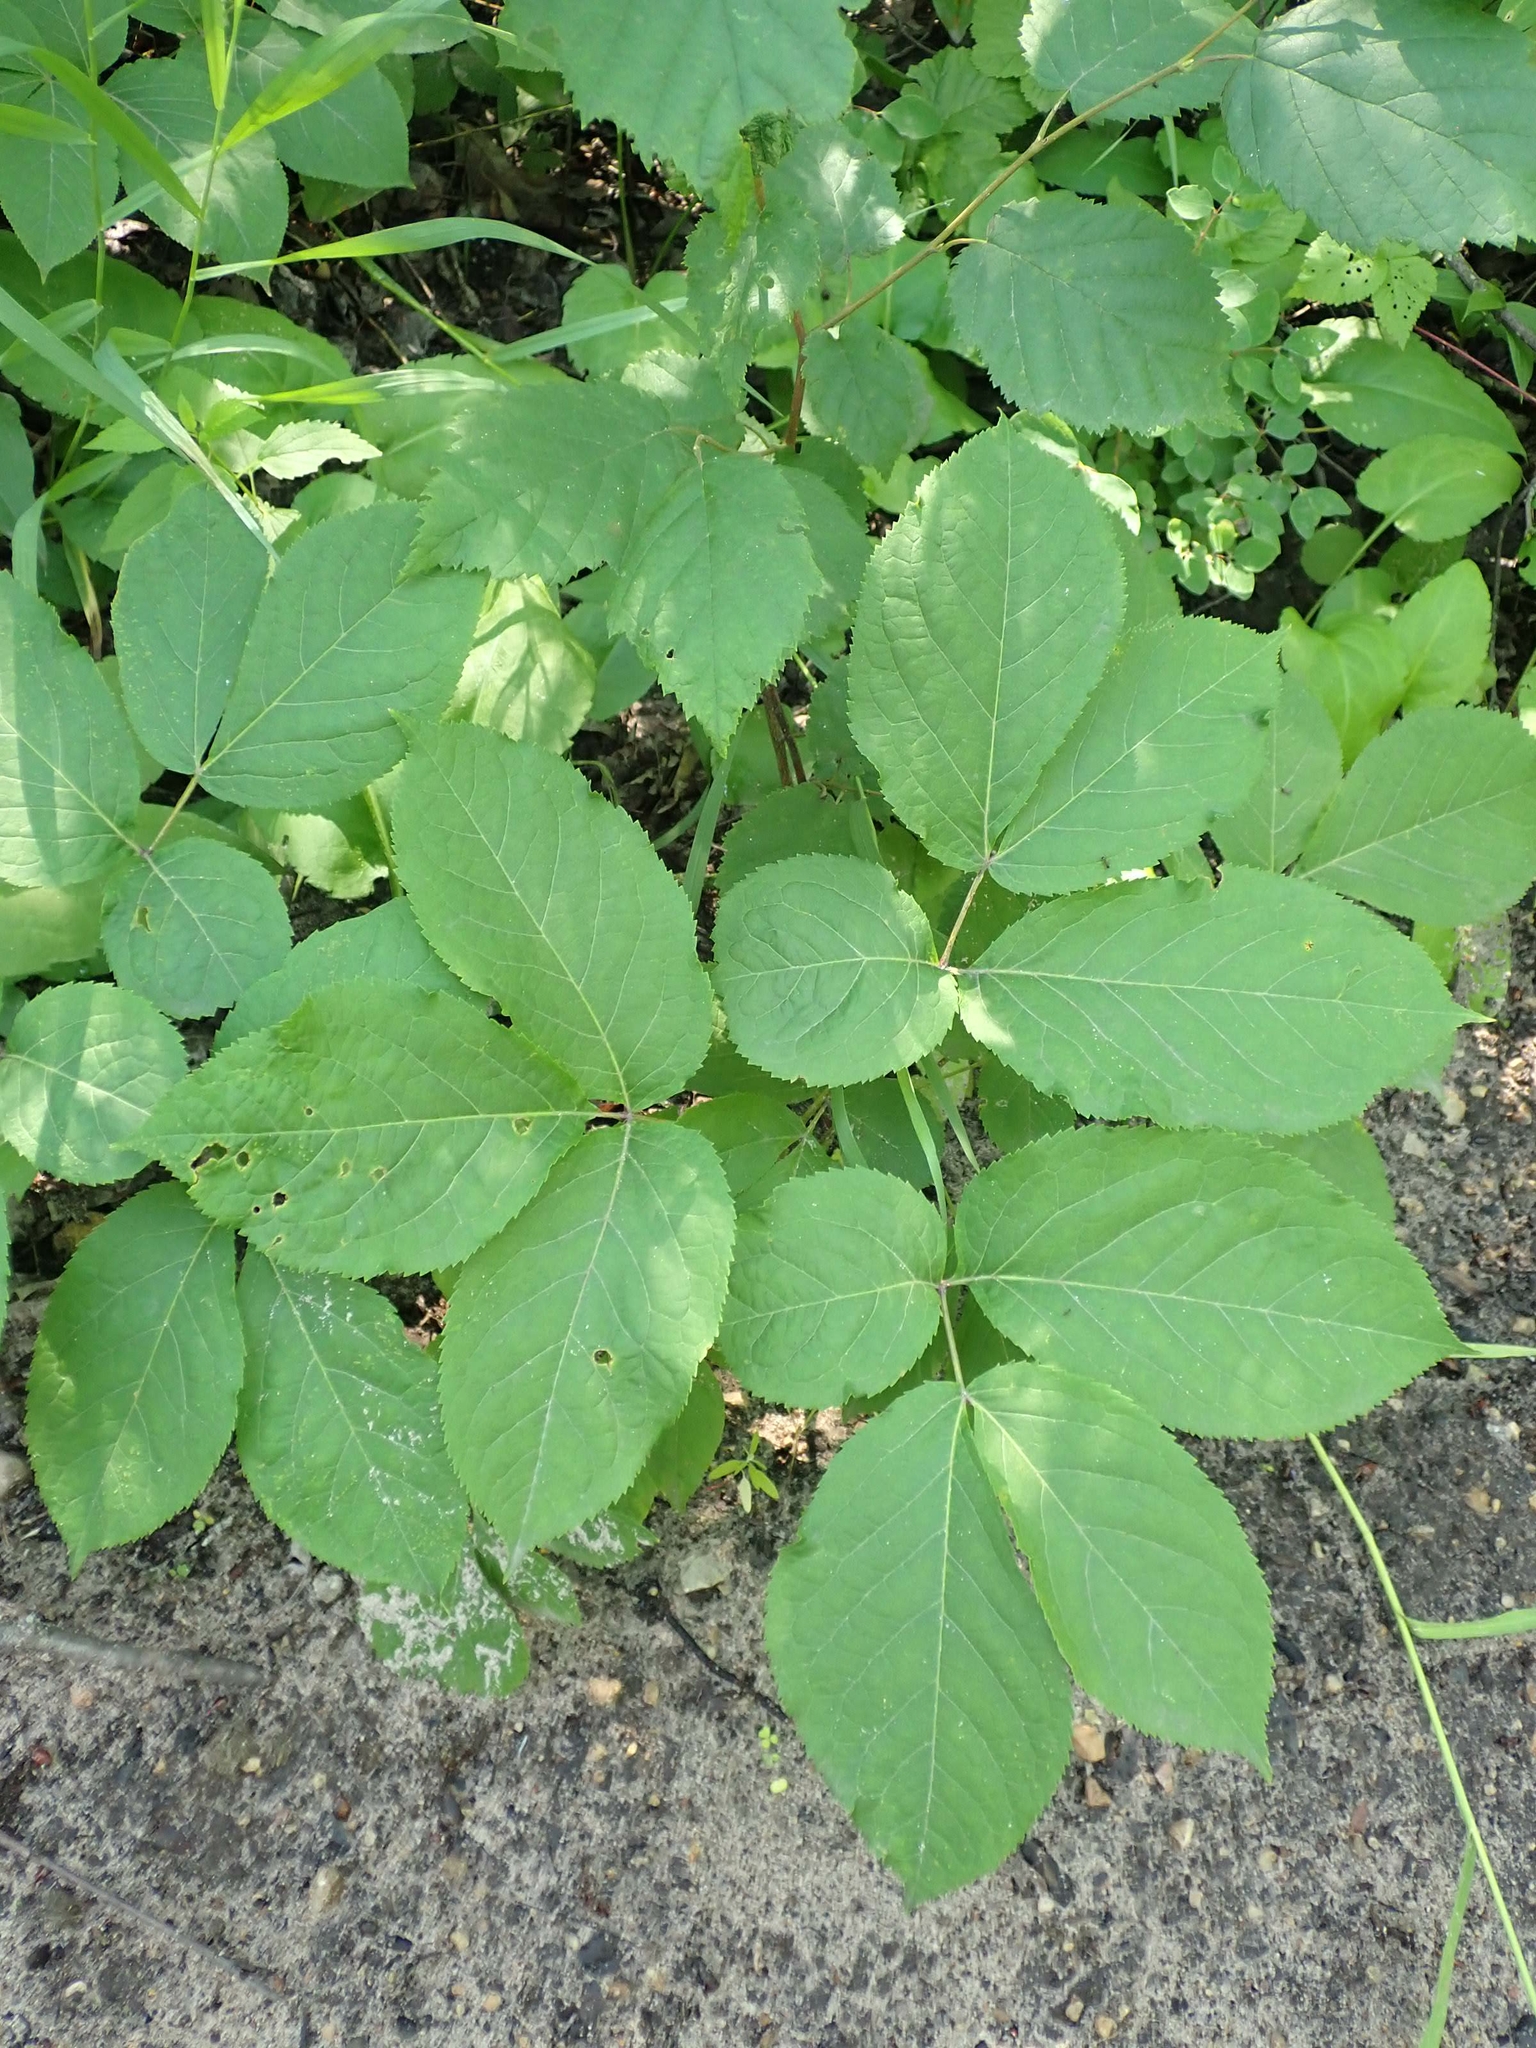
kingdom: Plantae
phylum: Tracheophyta
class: Magnoliopsida
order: Apiales
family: Araliaceae
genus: Aralia
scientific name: Aralia nudicaulis
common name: Wild sarsaparilla
